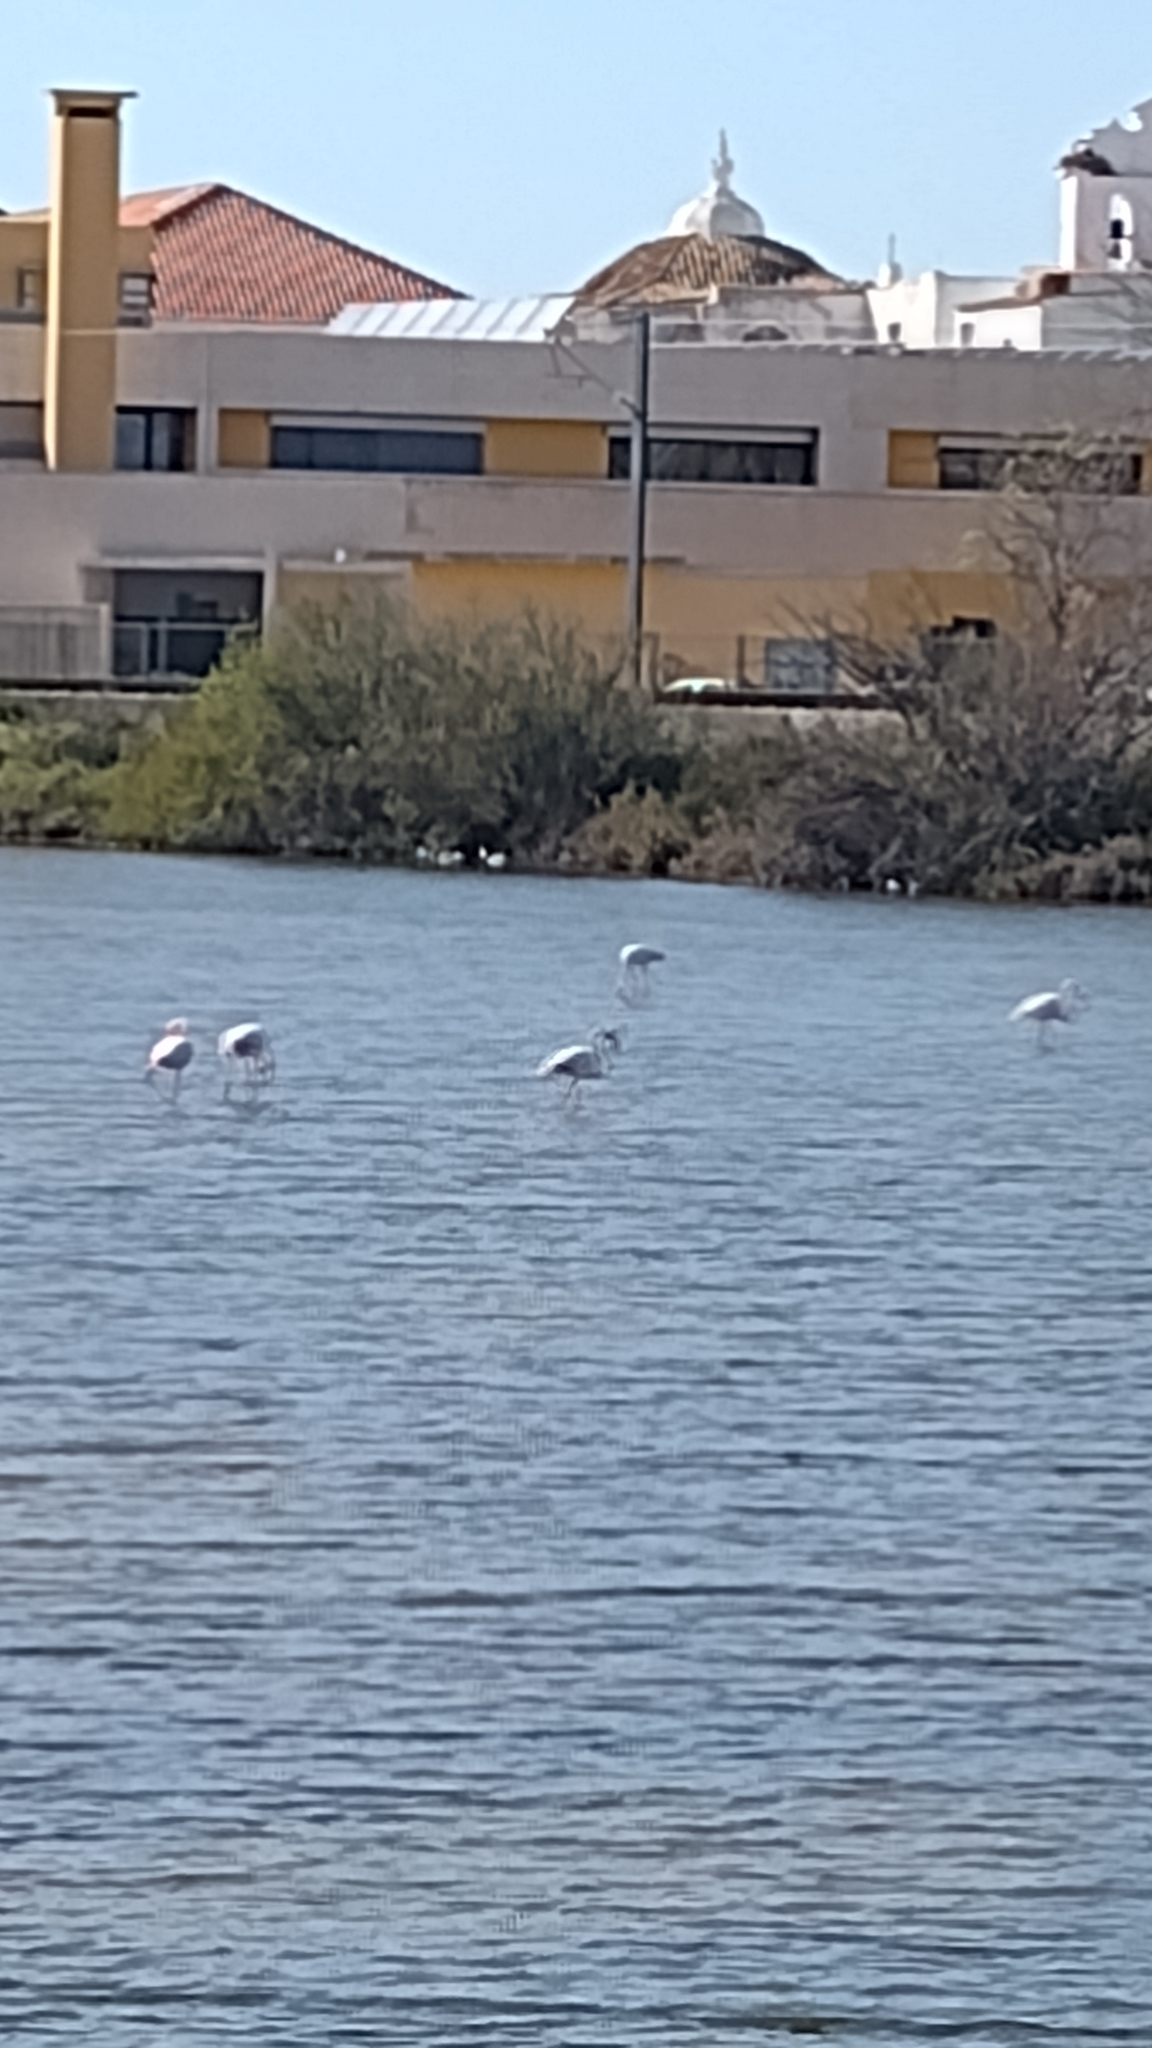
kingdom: Animalia
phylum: Chordata
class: Aves
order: Phoenicopteriformes
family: Phoenicopteridae
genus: Phoenicopterus
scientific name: Phoenicopterus roseus
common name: Greater flamingo
